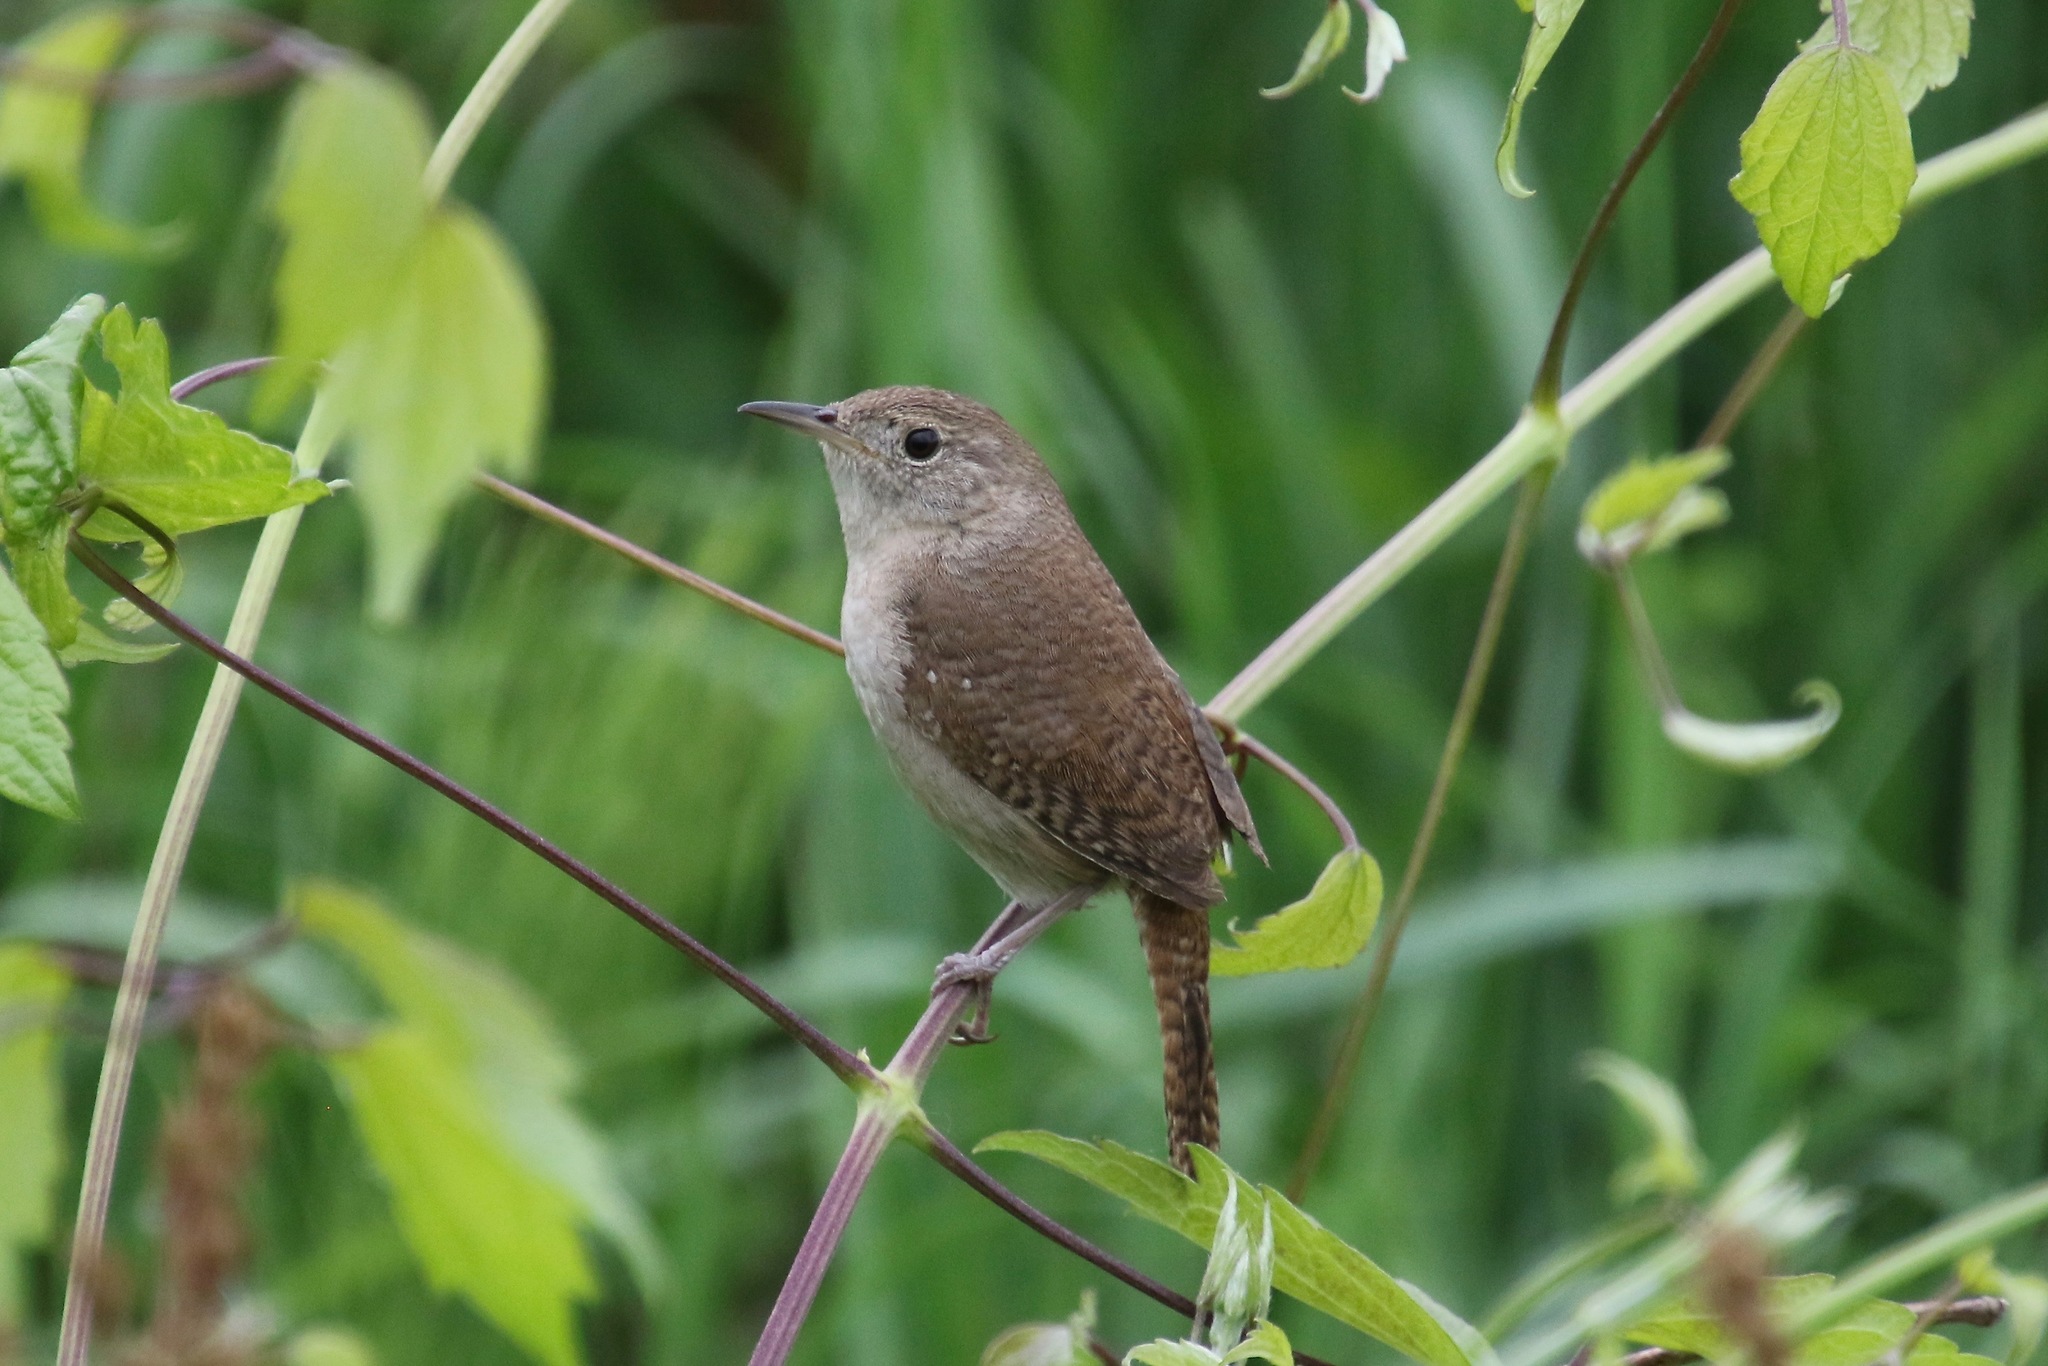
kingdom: Animalia
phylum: Chordata
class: Aves
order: Passeriformes
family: Troglodytidae
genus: Troglodytes
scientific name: Troglodytes aedon
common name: House wren
